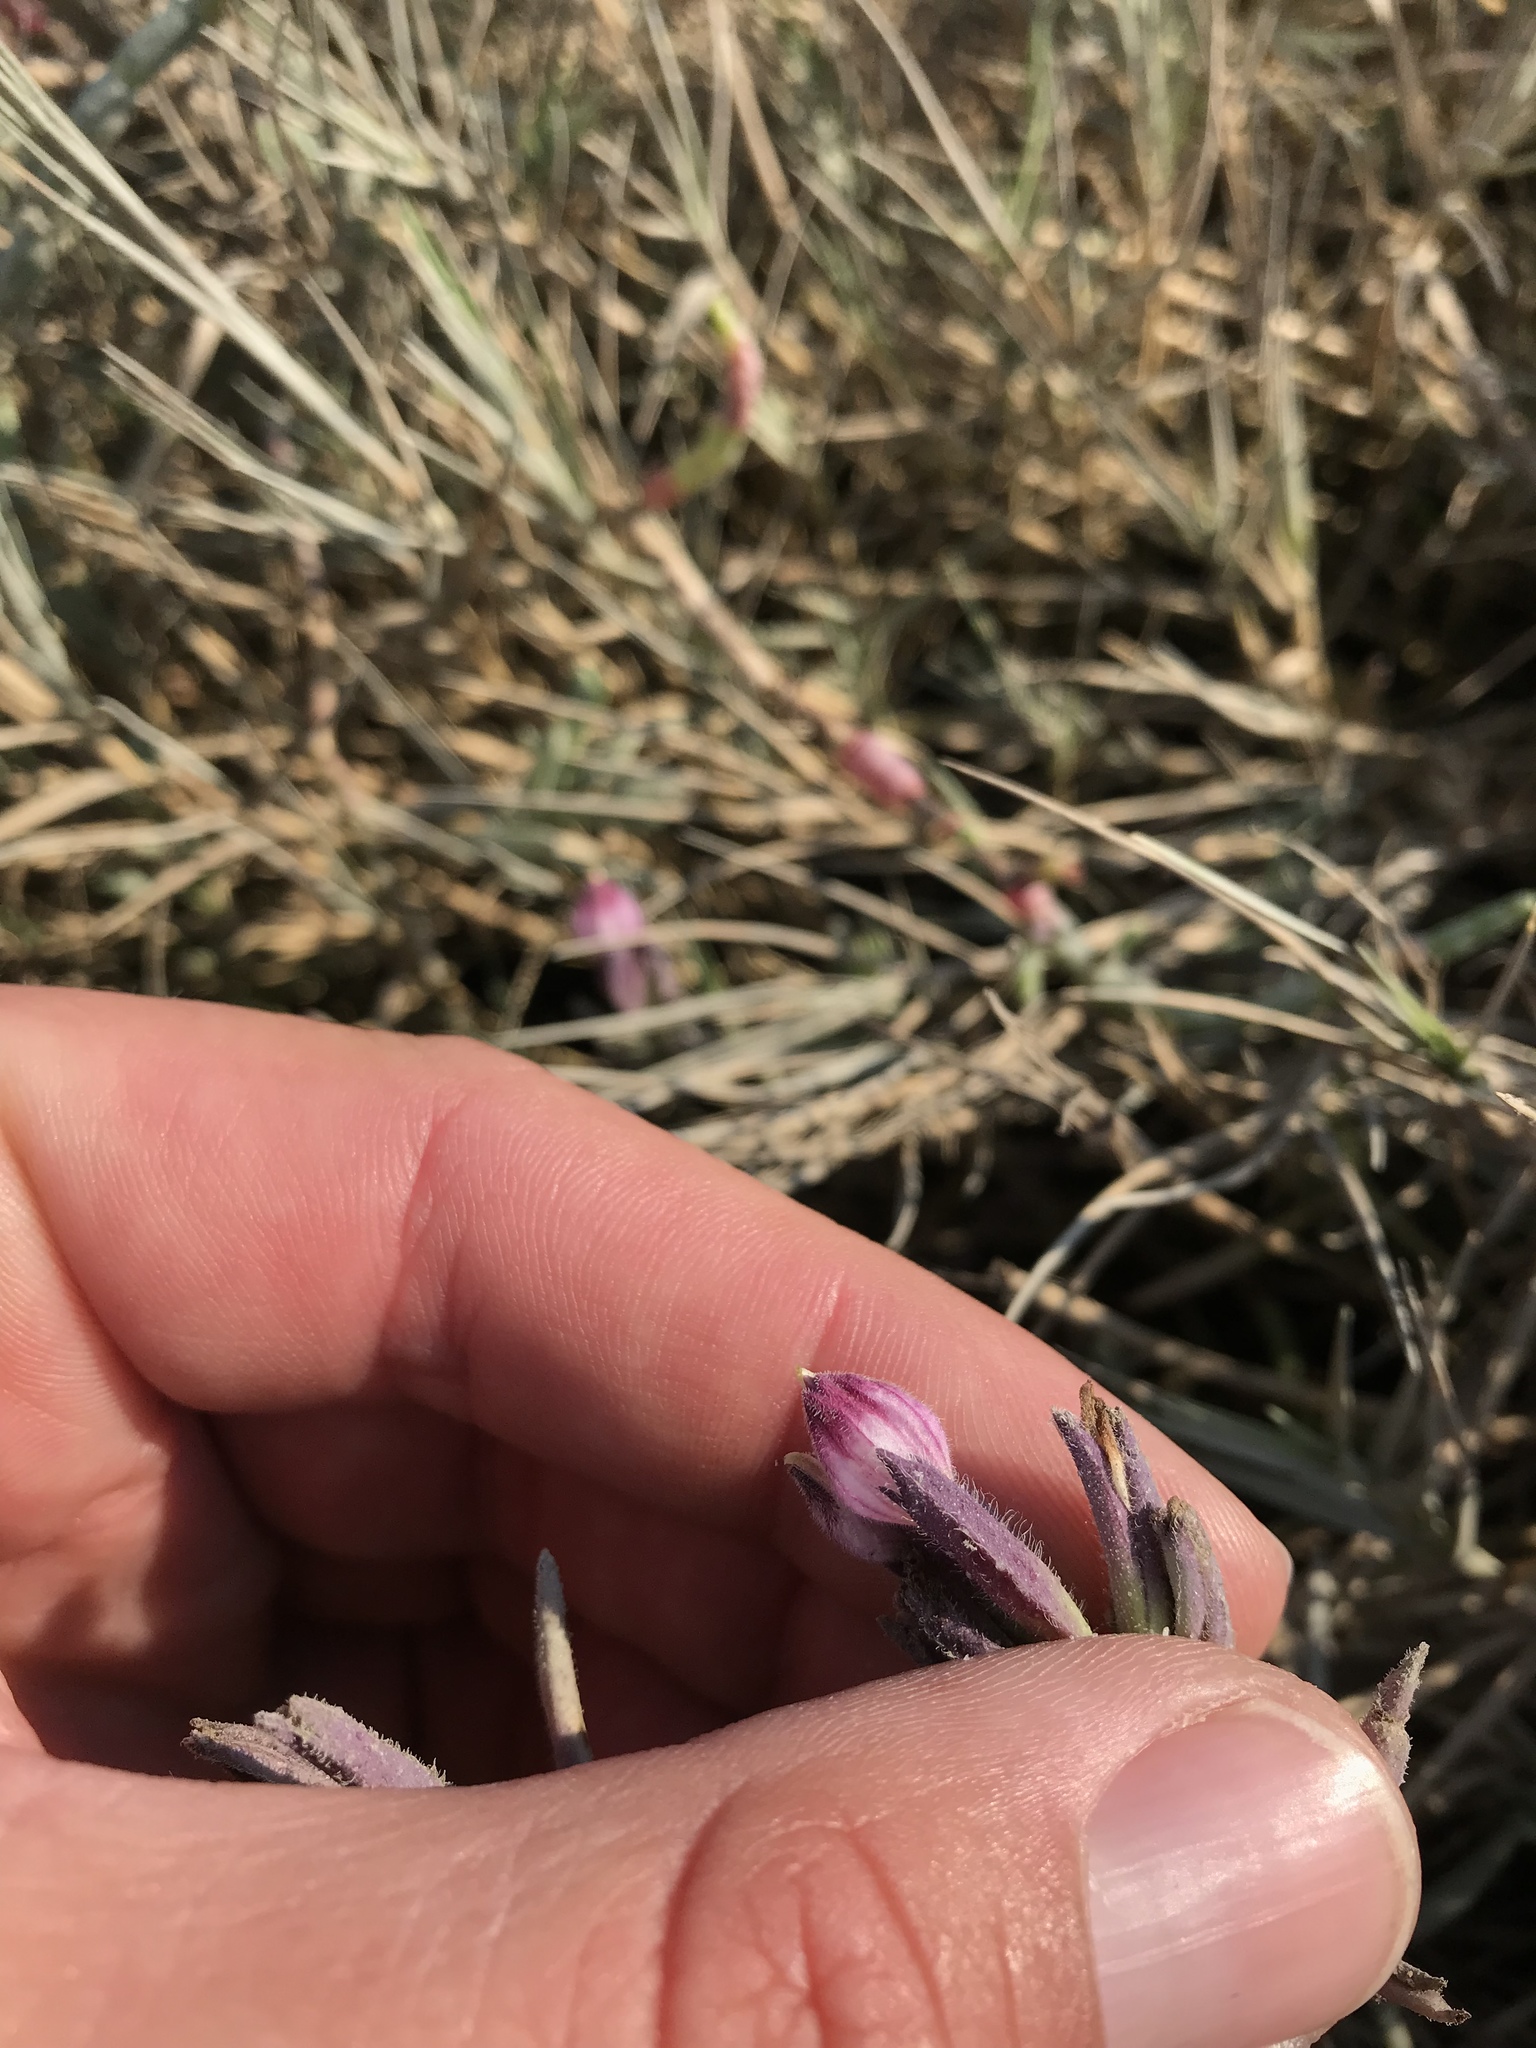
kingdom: Plantae
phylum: Tracheophyta
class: Magnoliopsida
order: Lamiales
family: Orobanchaceae
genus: Chloropyron
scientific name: Chloropyron maritimum
